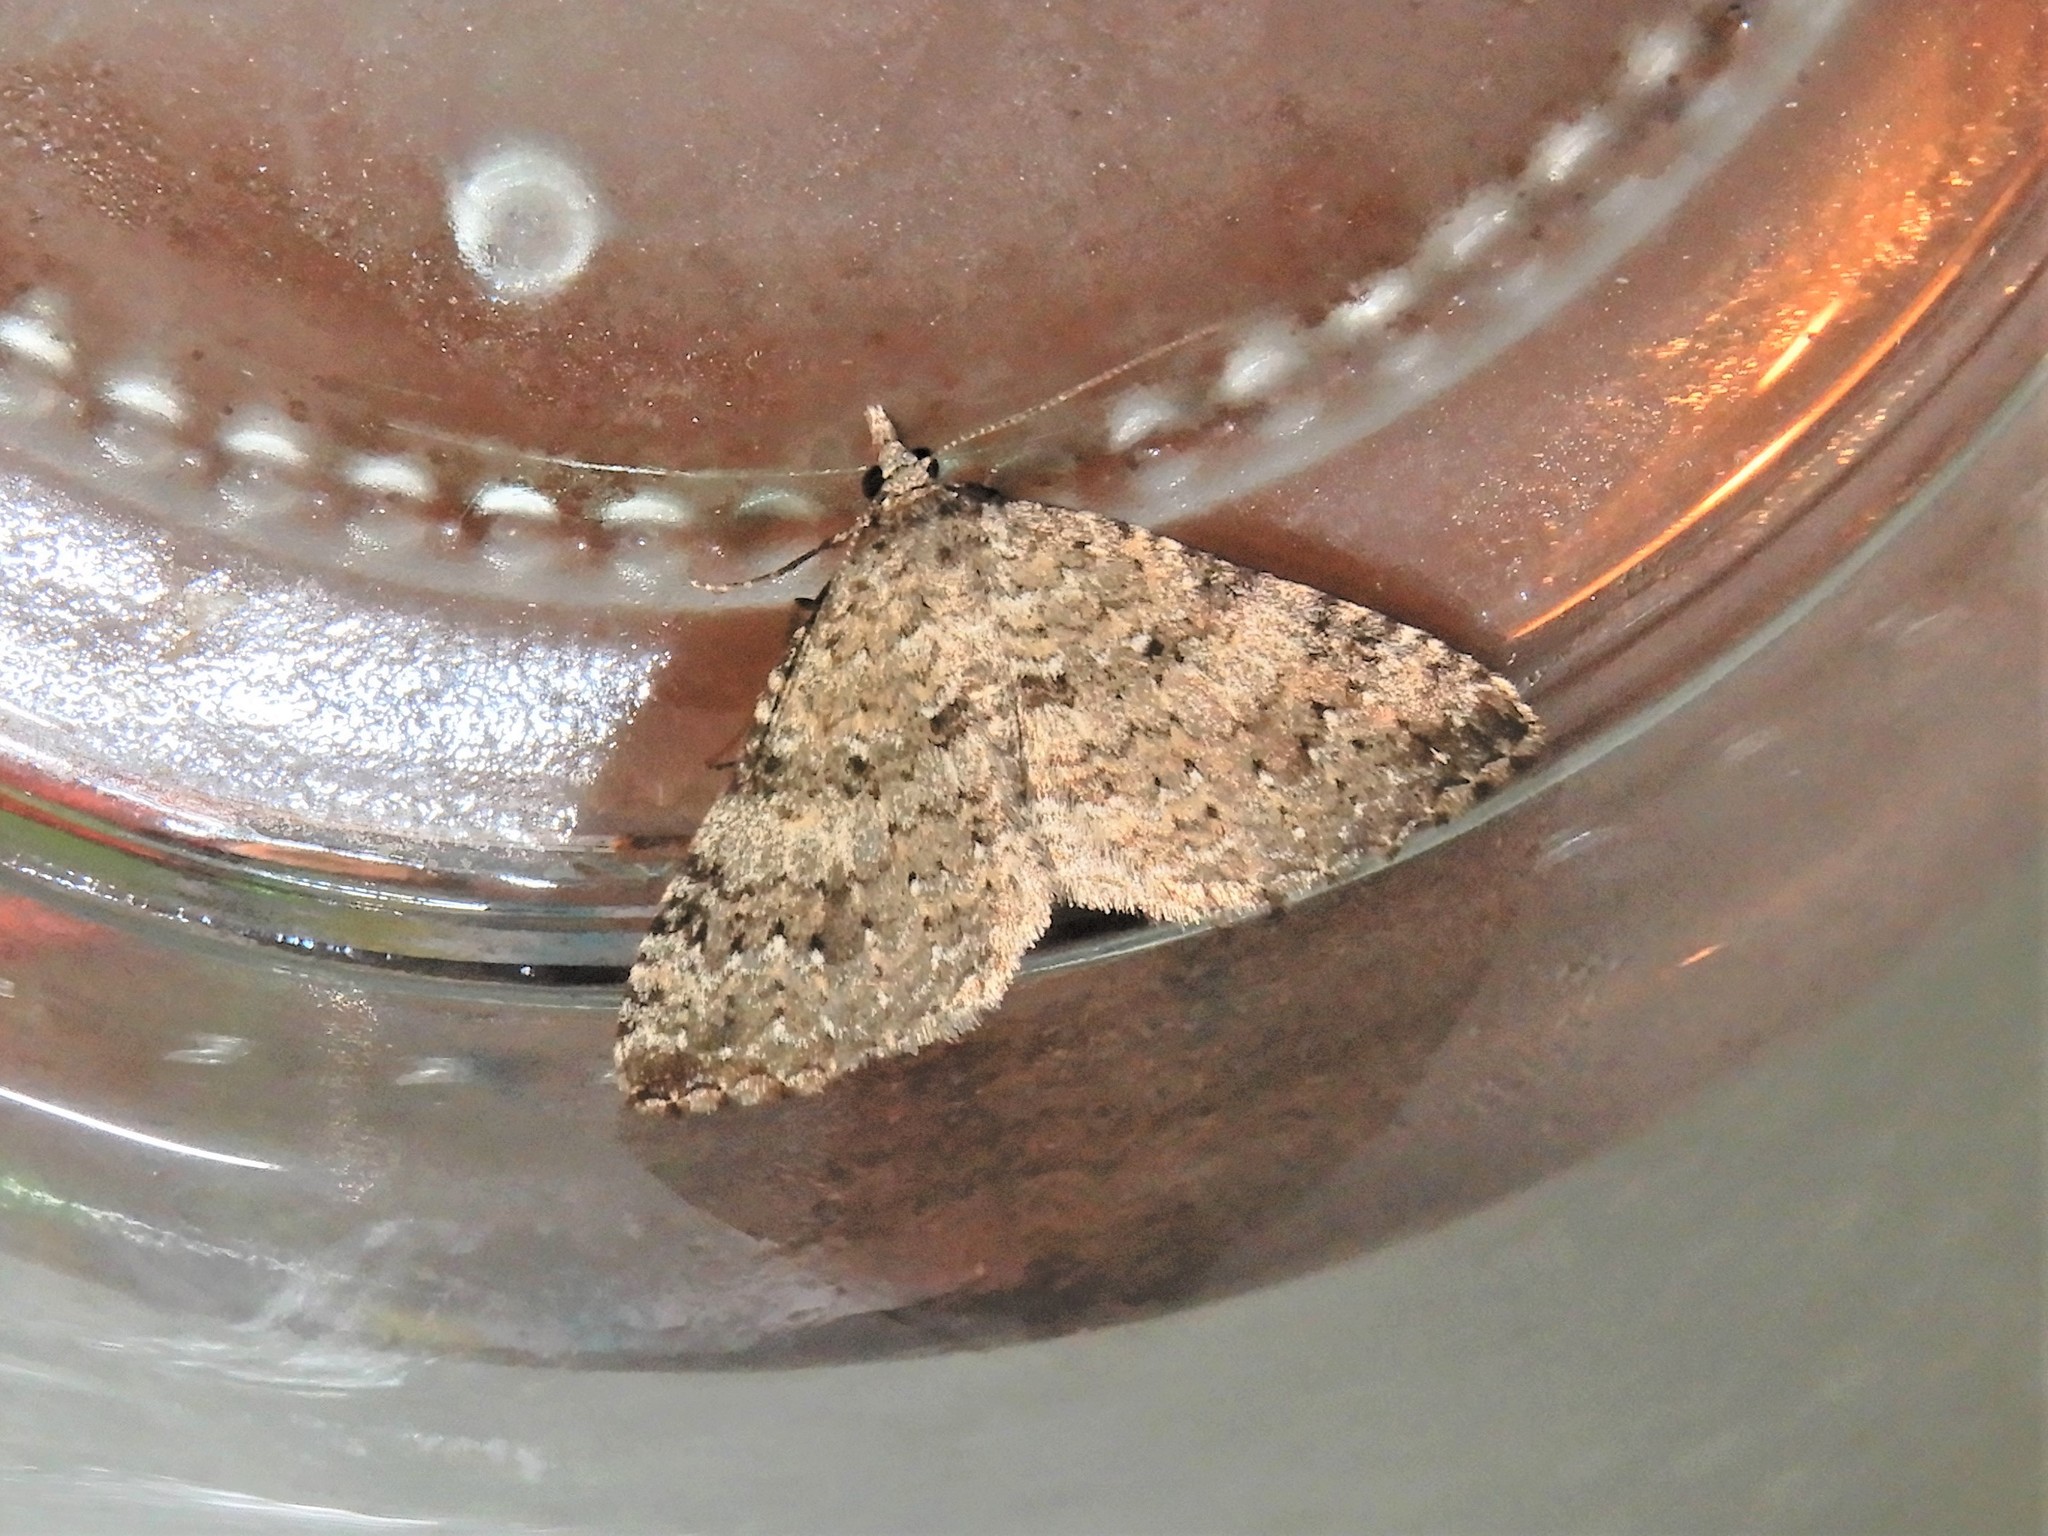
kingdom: Animalia
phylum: Arthropoda
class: Insecta
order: Lepidoptera
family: Geometridae
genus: Helastia
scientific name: Helastia semisignata
